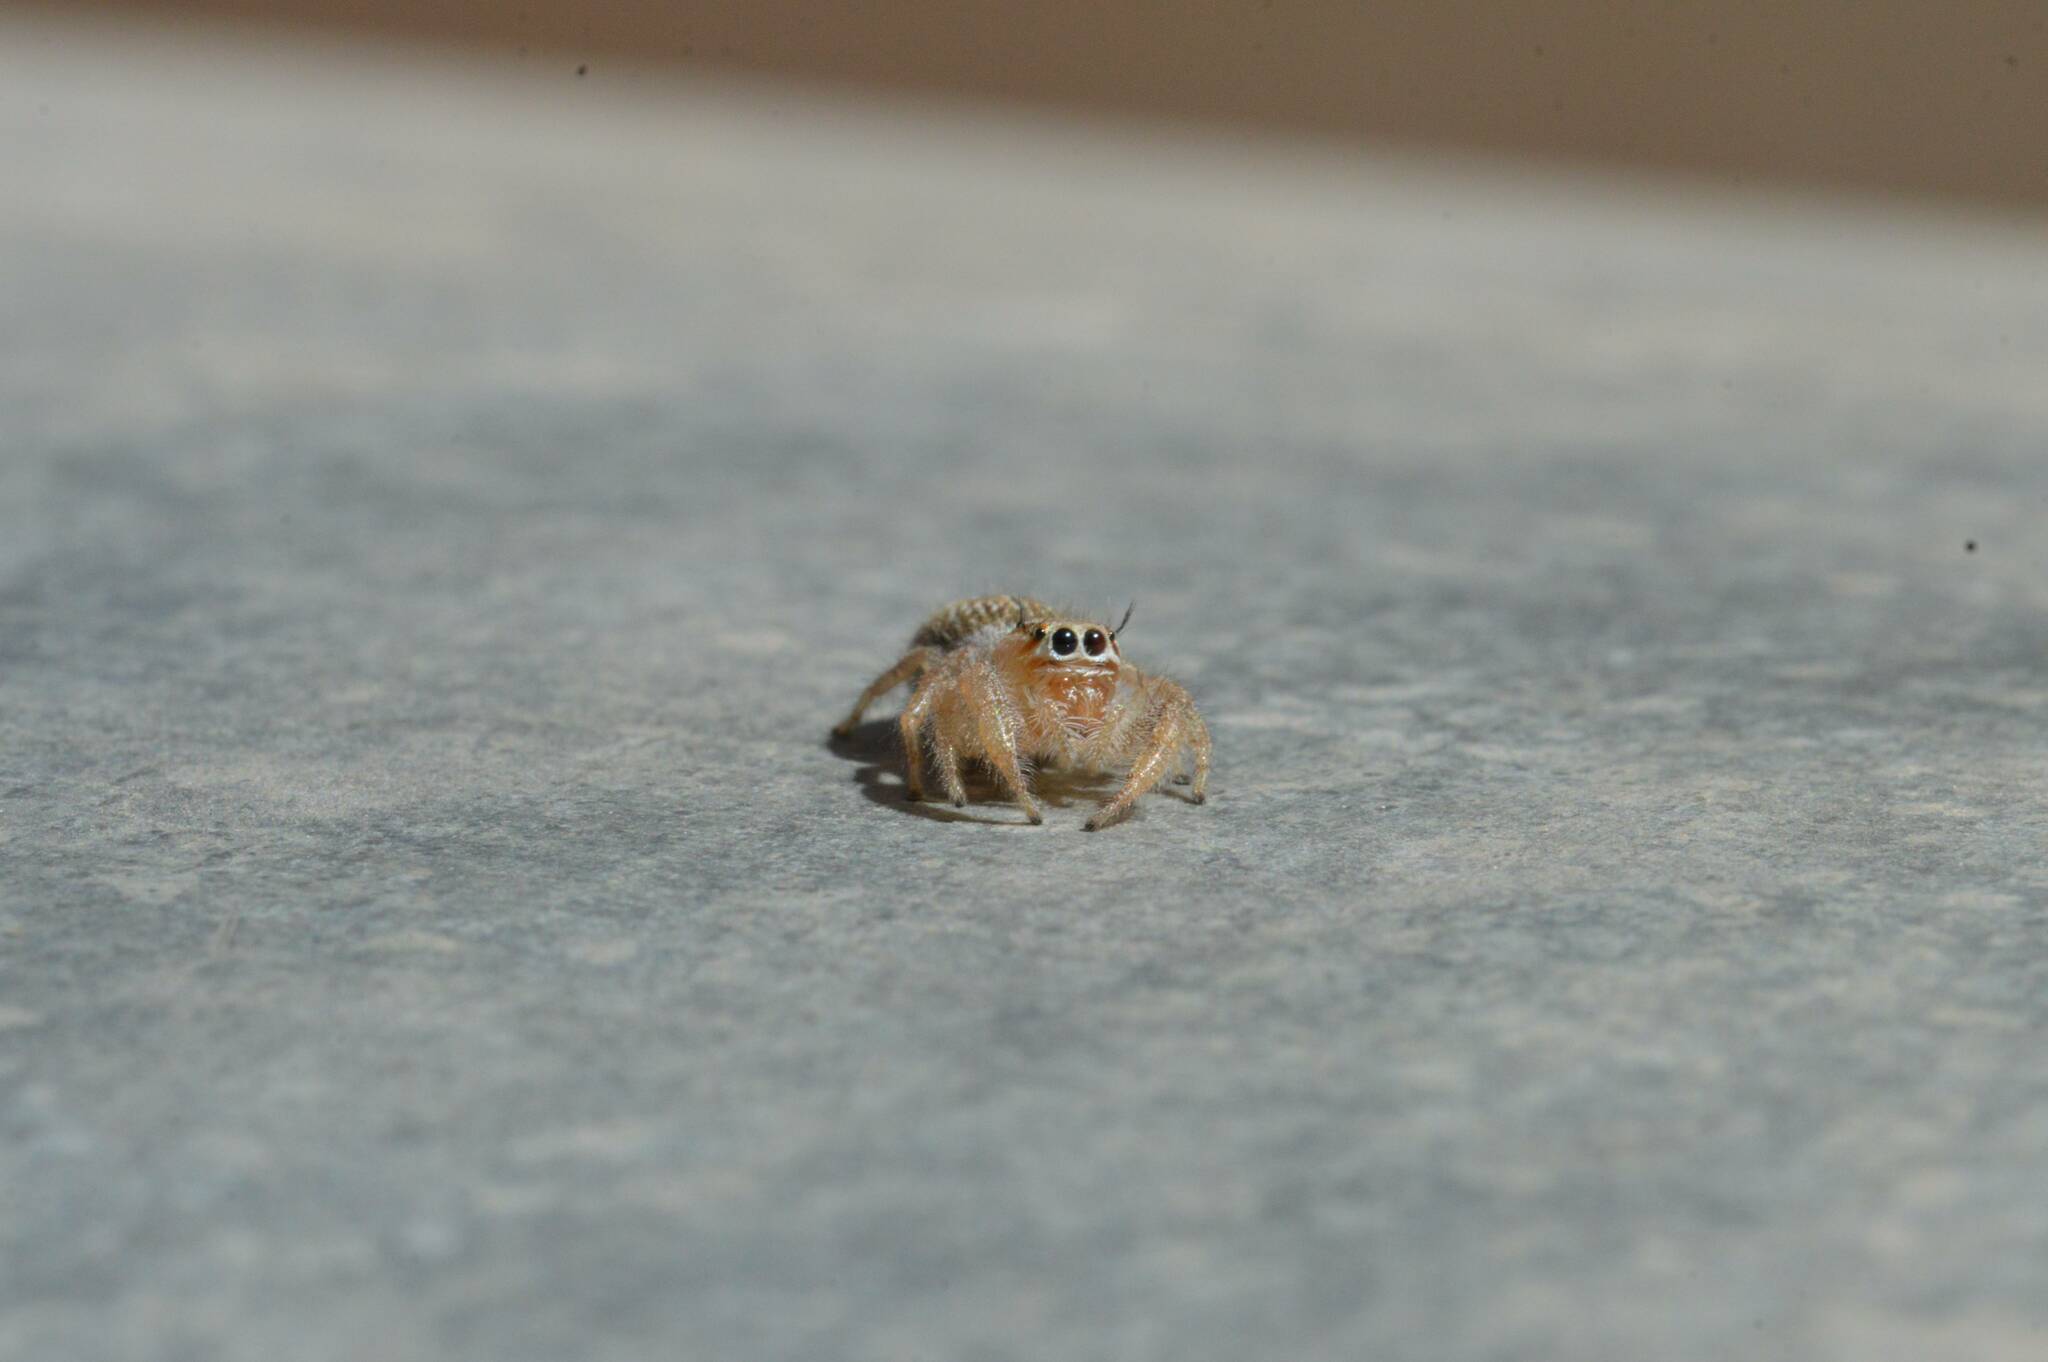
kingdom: Animalia
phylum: Arthropoda
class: Arachnida
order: Araneae
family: Salticidae
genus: Thyene
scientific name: Thyene imperialis
